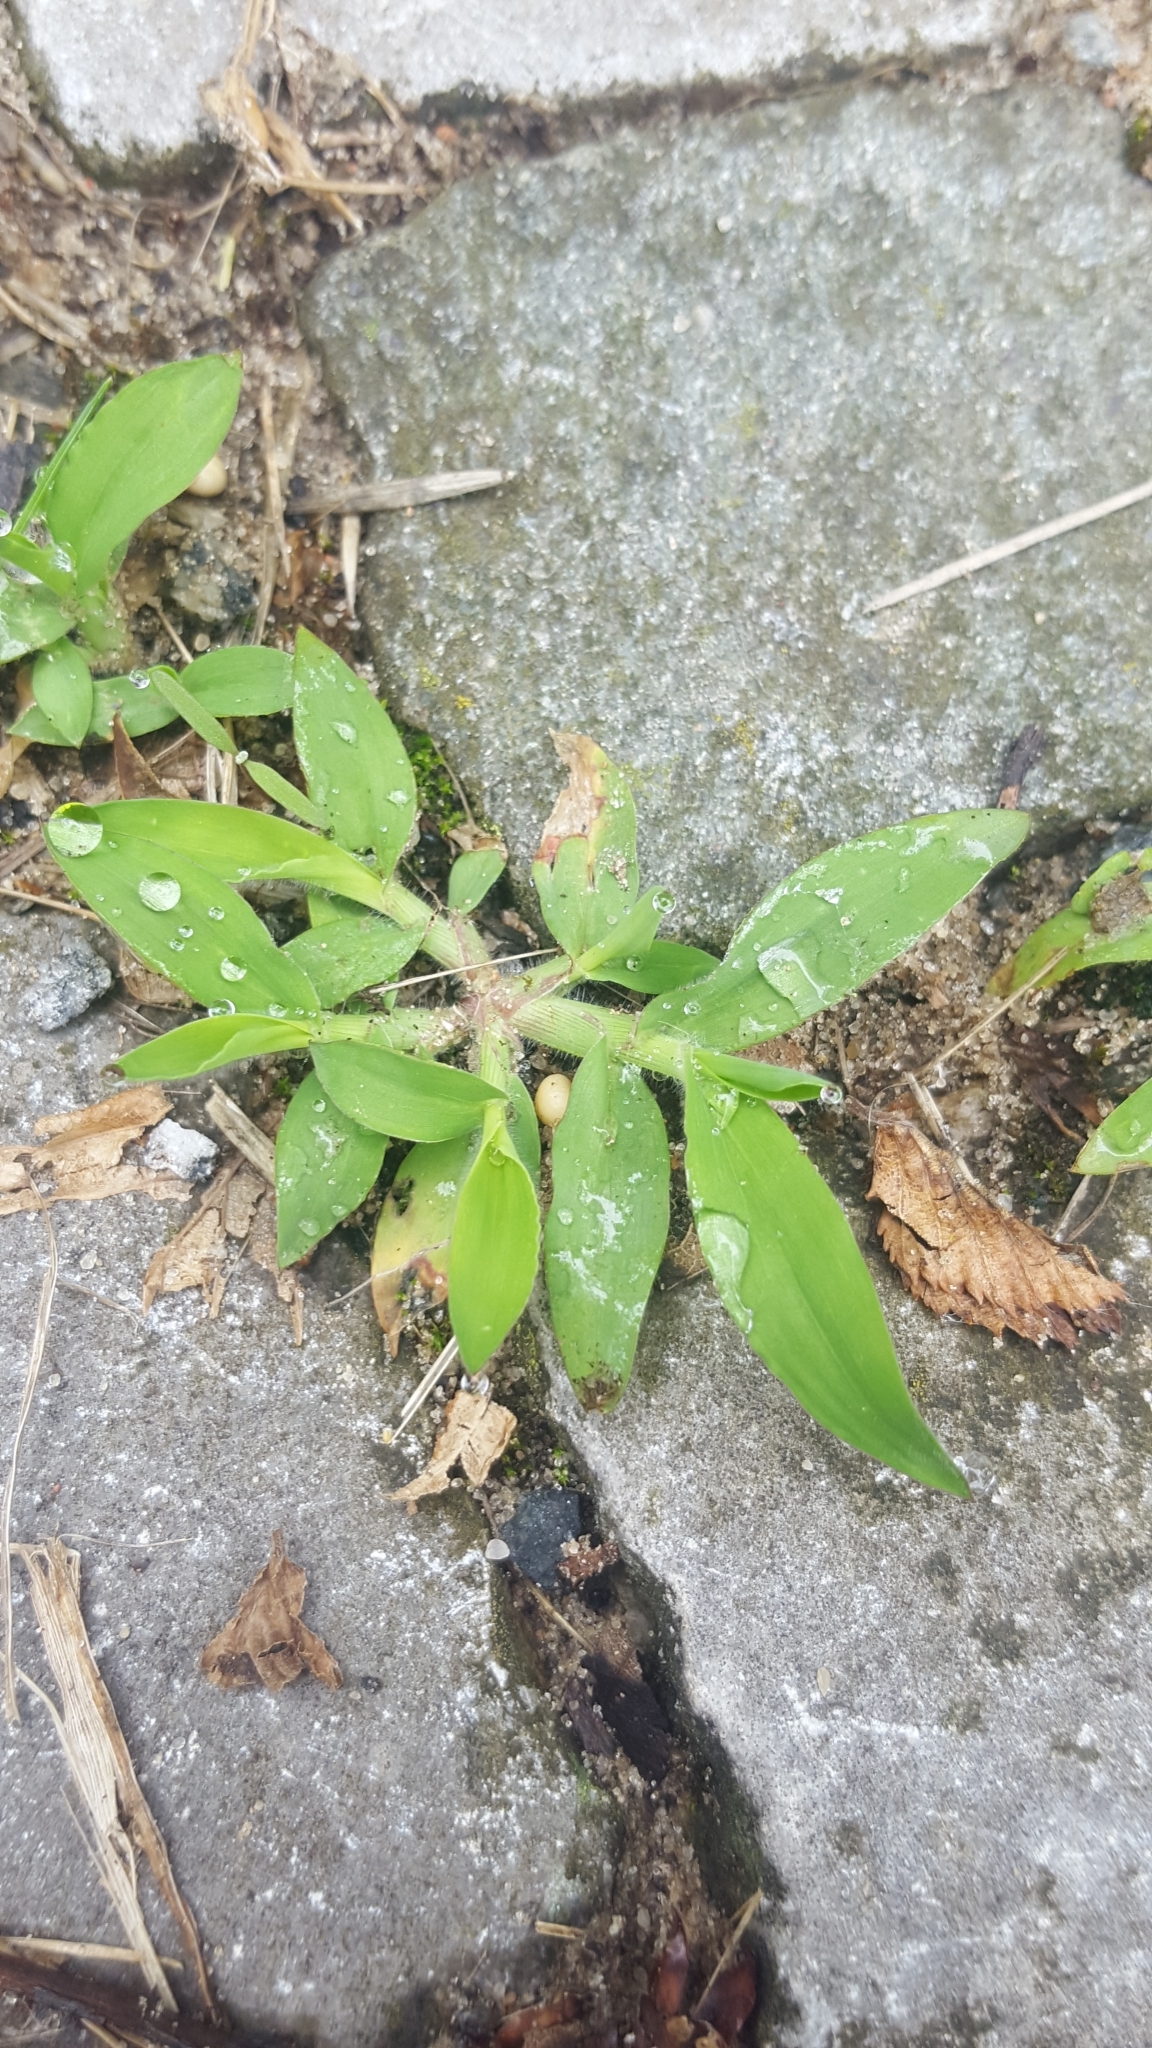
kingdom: Plantae
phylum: Tracheophyta
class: Liliopsida
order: Poales
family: Poaceae
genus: Digitaria
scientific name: Digitaria sanguinalis
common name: Hairy crabgrass
